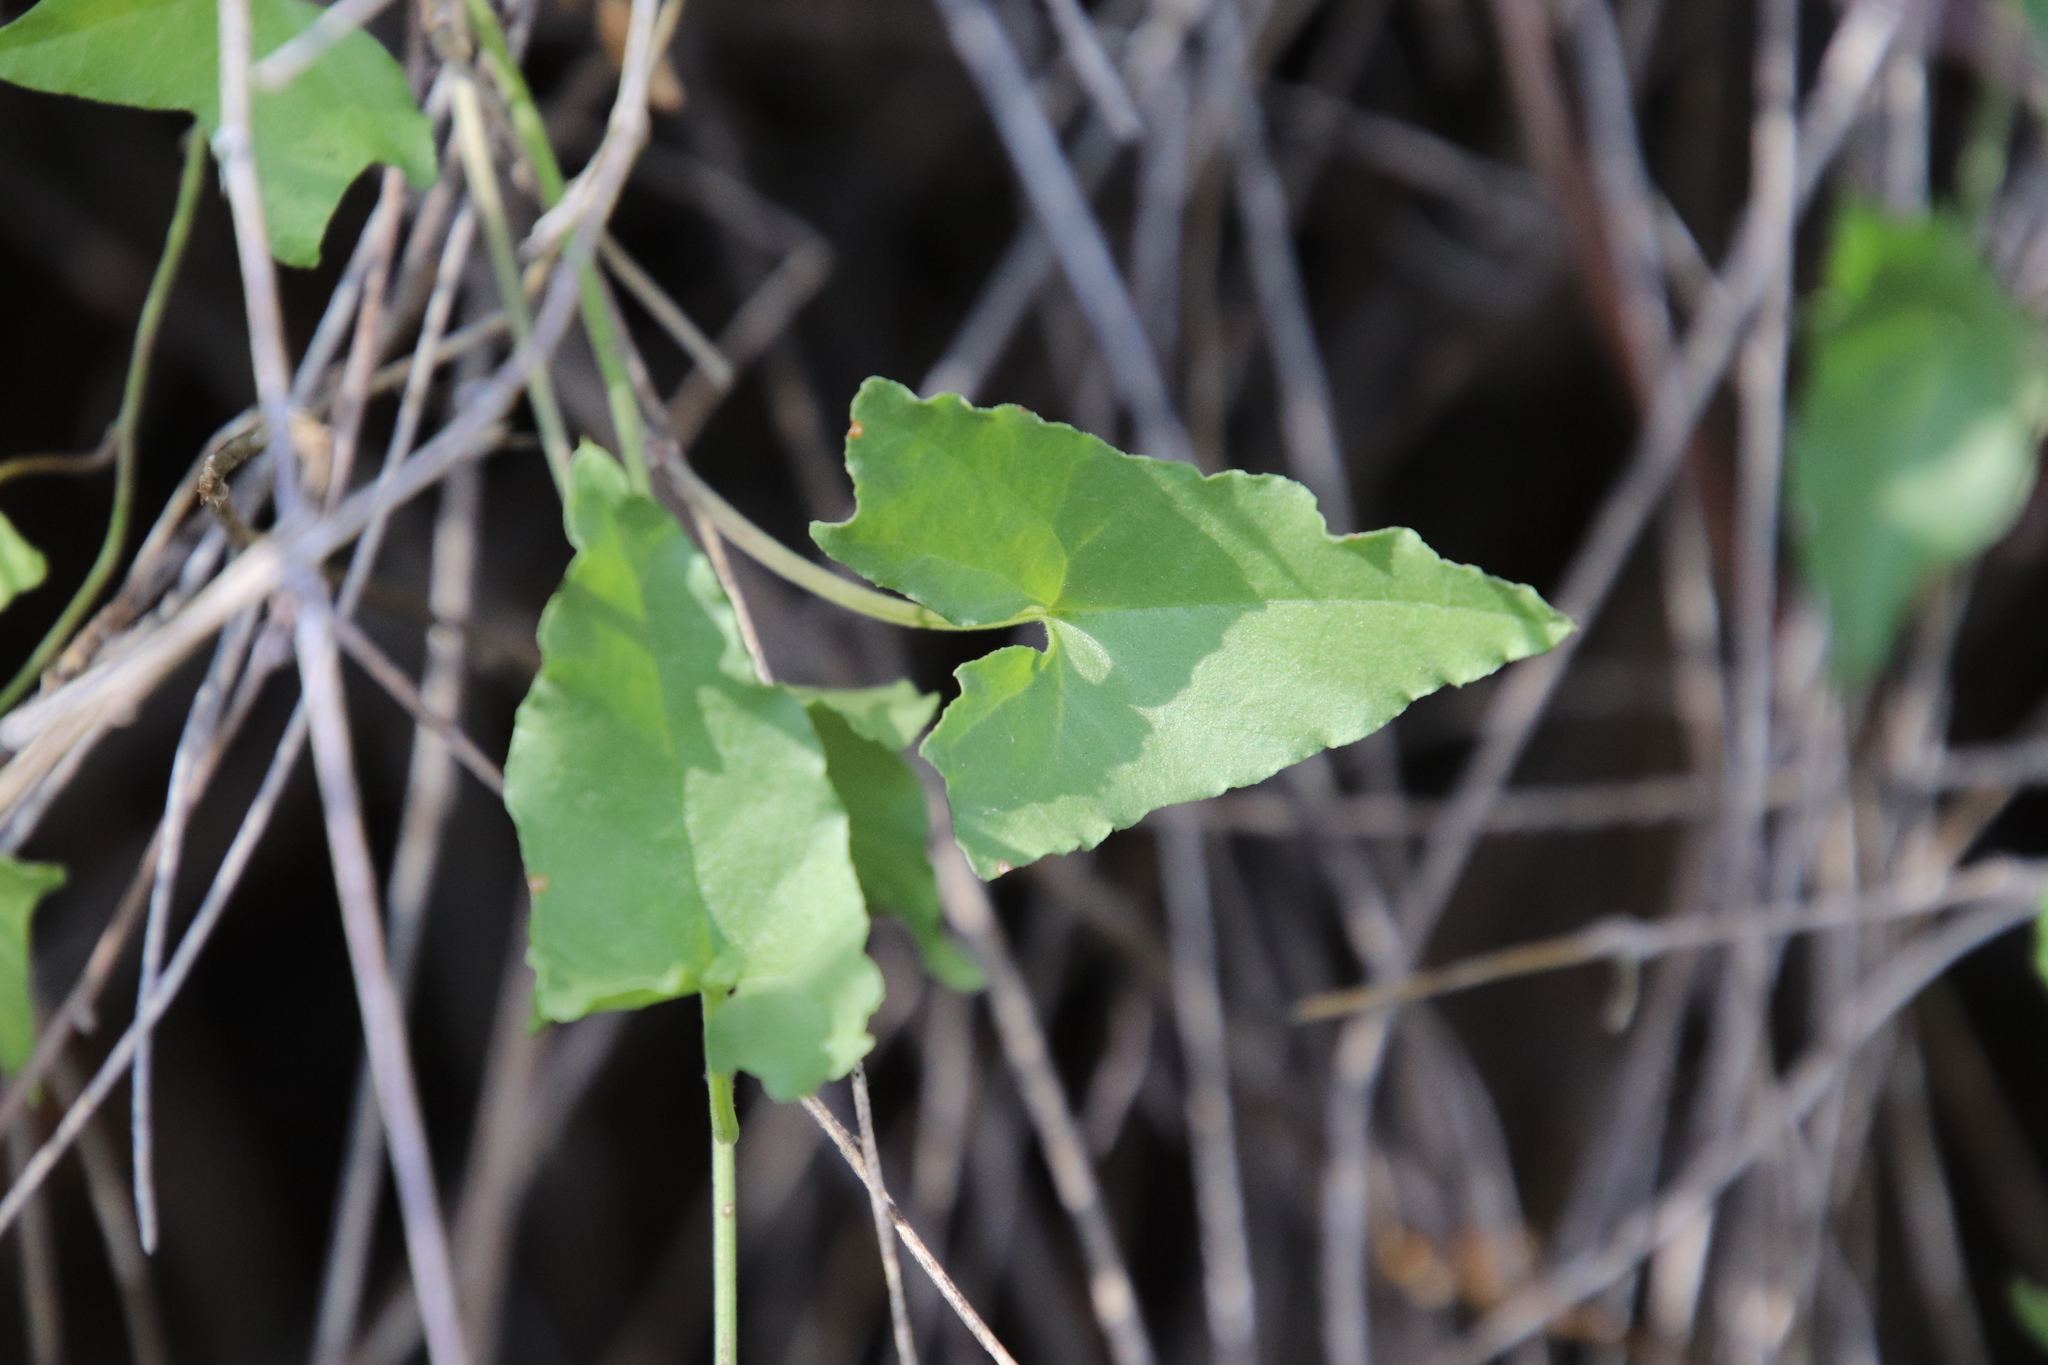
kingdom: Plantae
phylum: Tracheophyta
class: Magnoliopsida
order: Solanales
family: Convolvulaceae
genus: Calystegia
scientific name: Calystegia macrostegia
